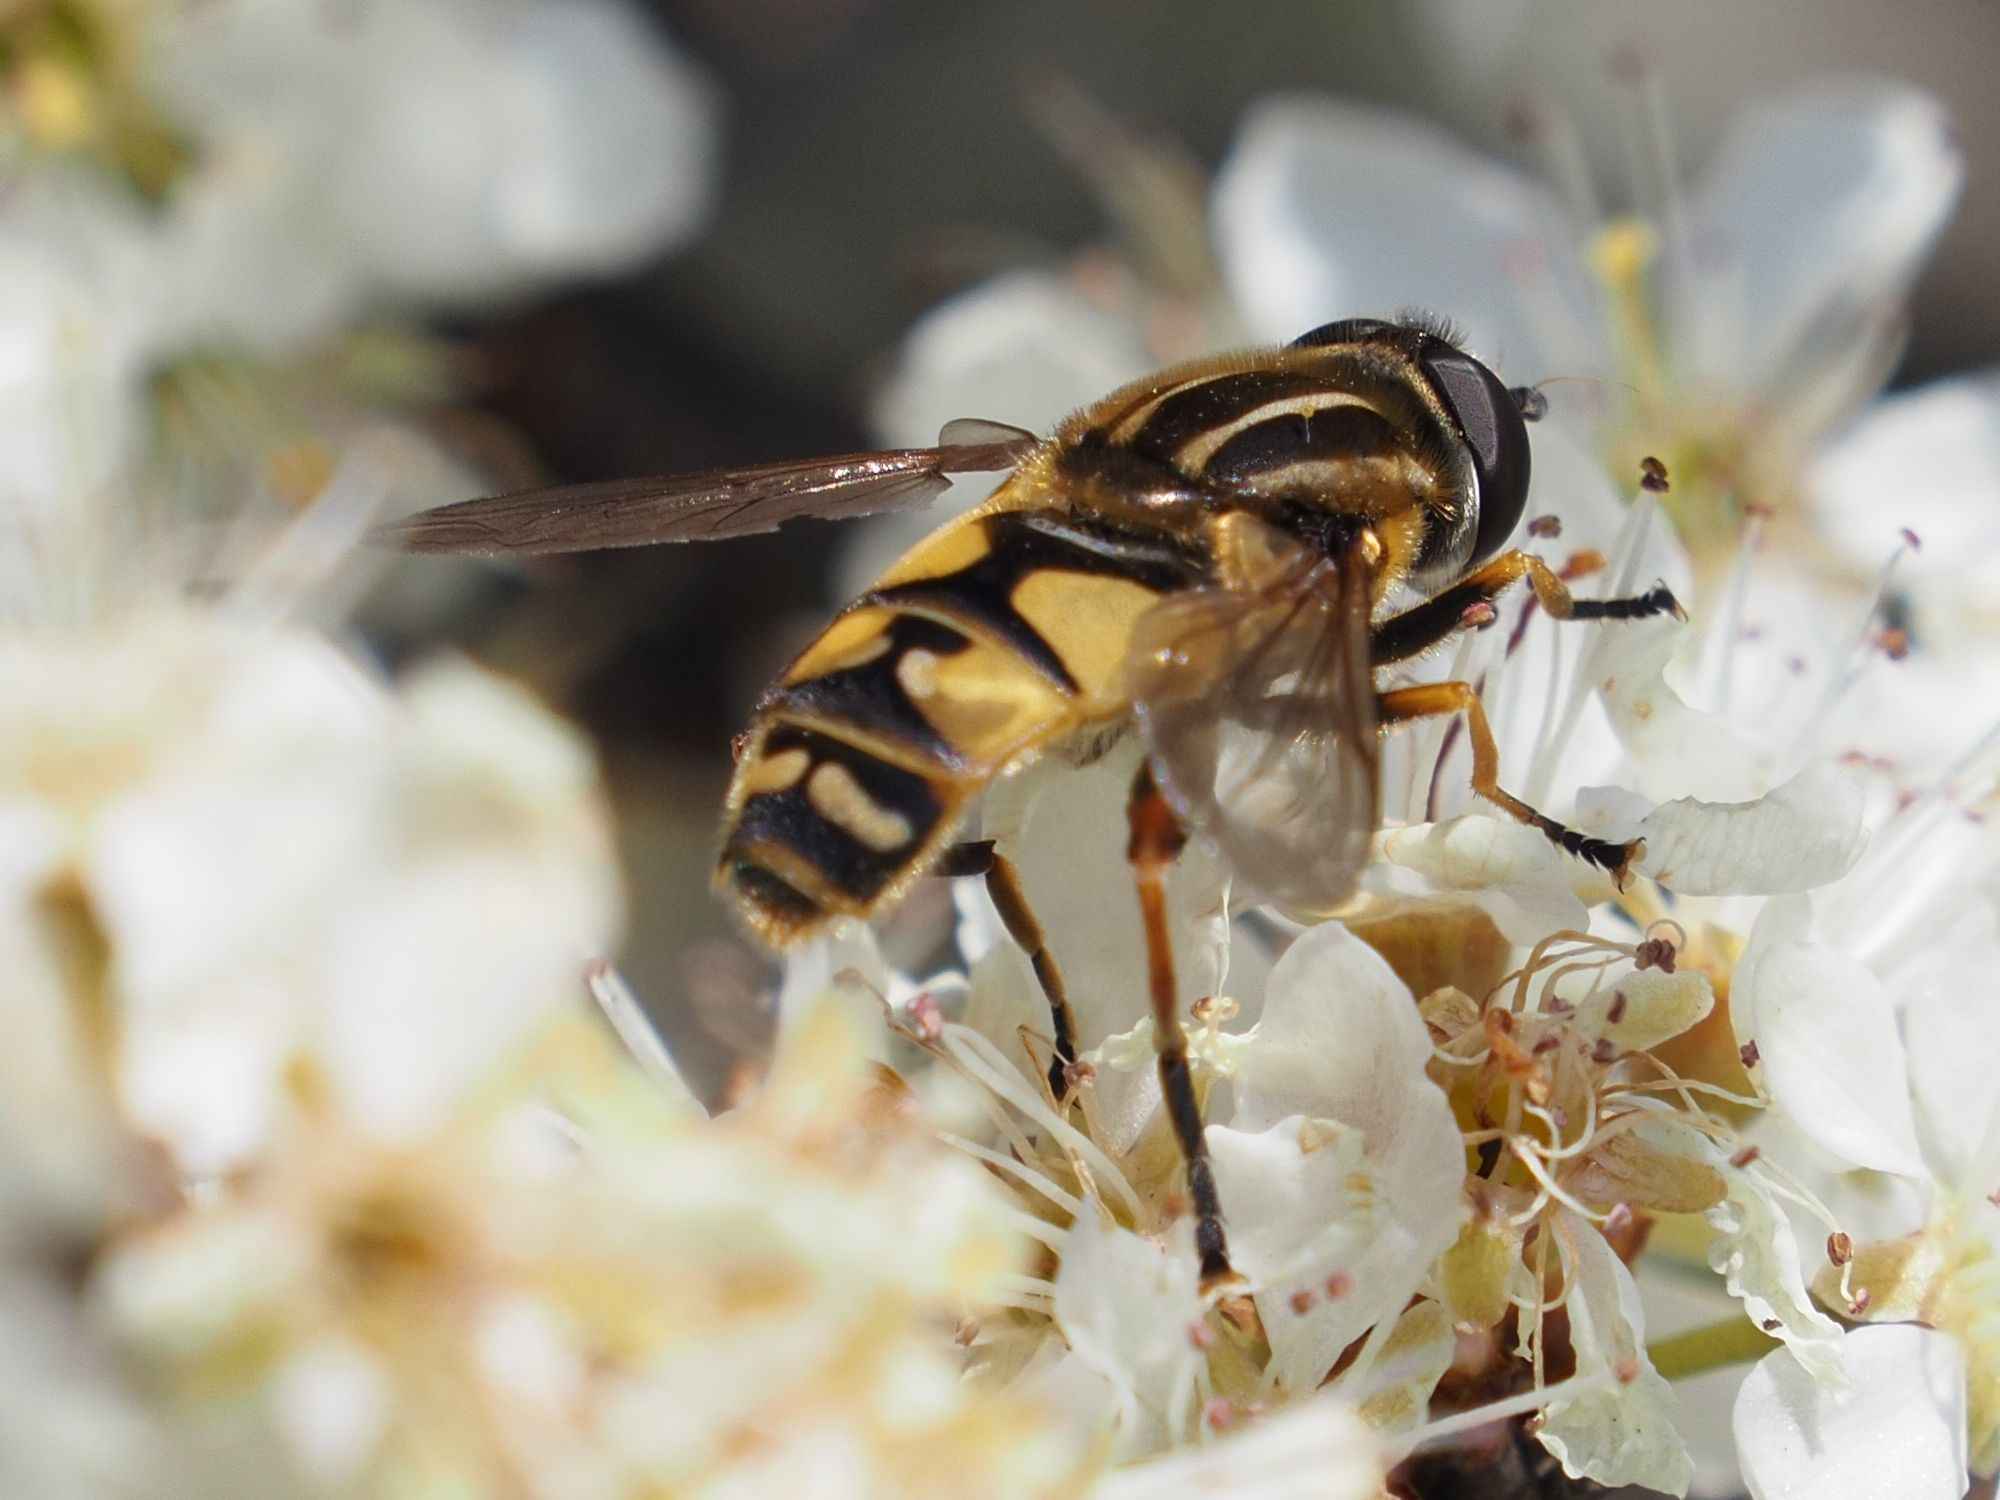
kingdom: Animalia
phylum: Arthropoda
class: Insecta
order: Diptera
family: Syrphidae
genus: Helophilus
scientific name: Helophilus pendulus
